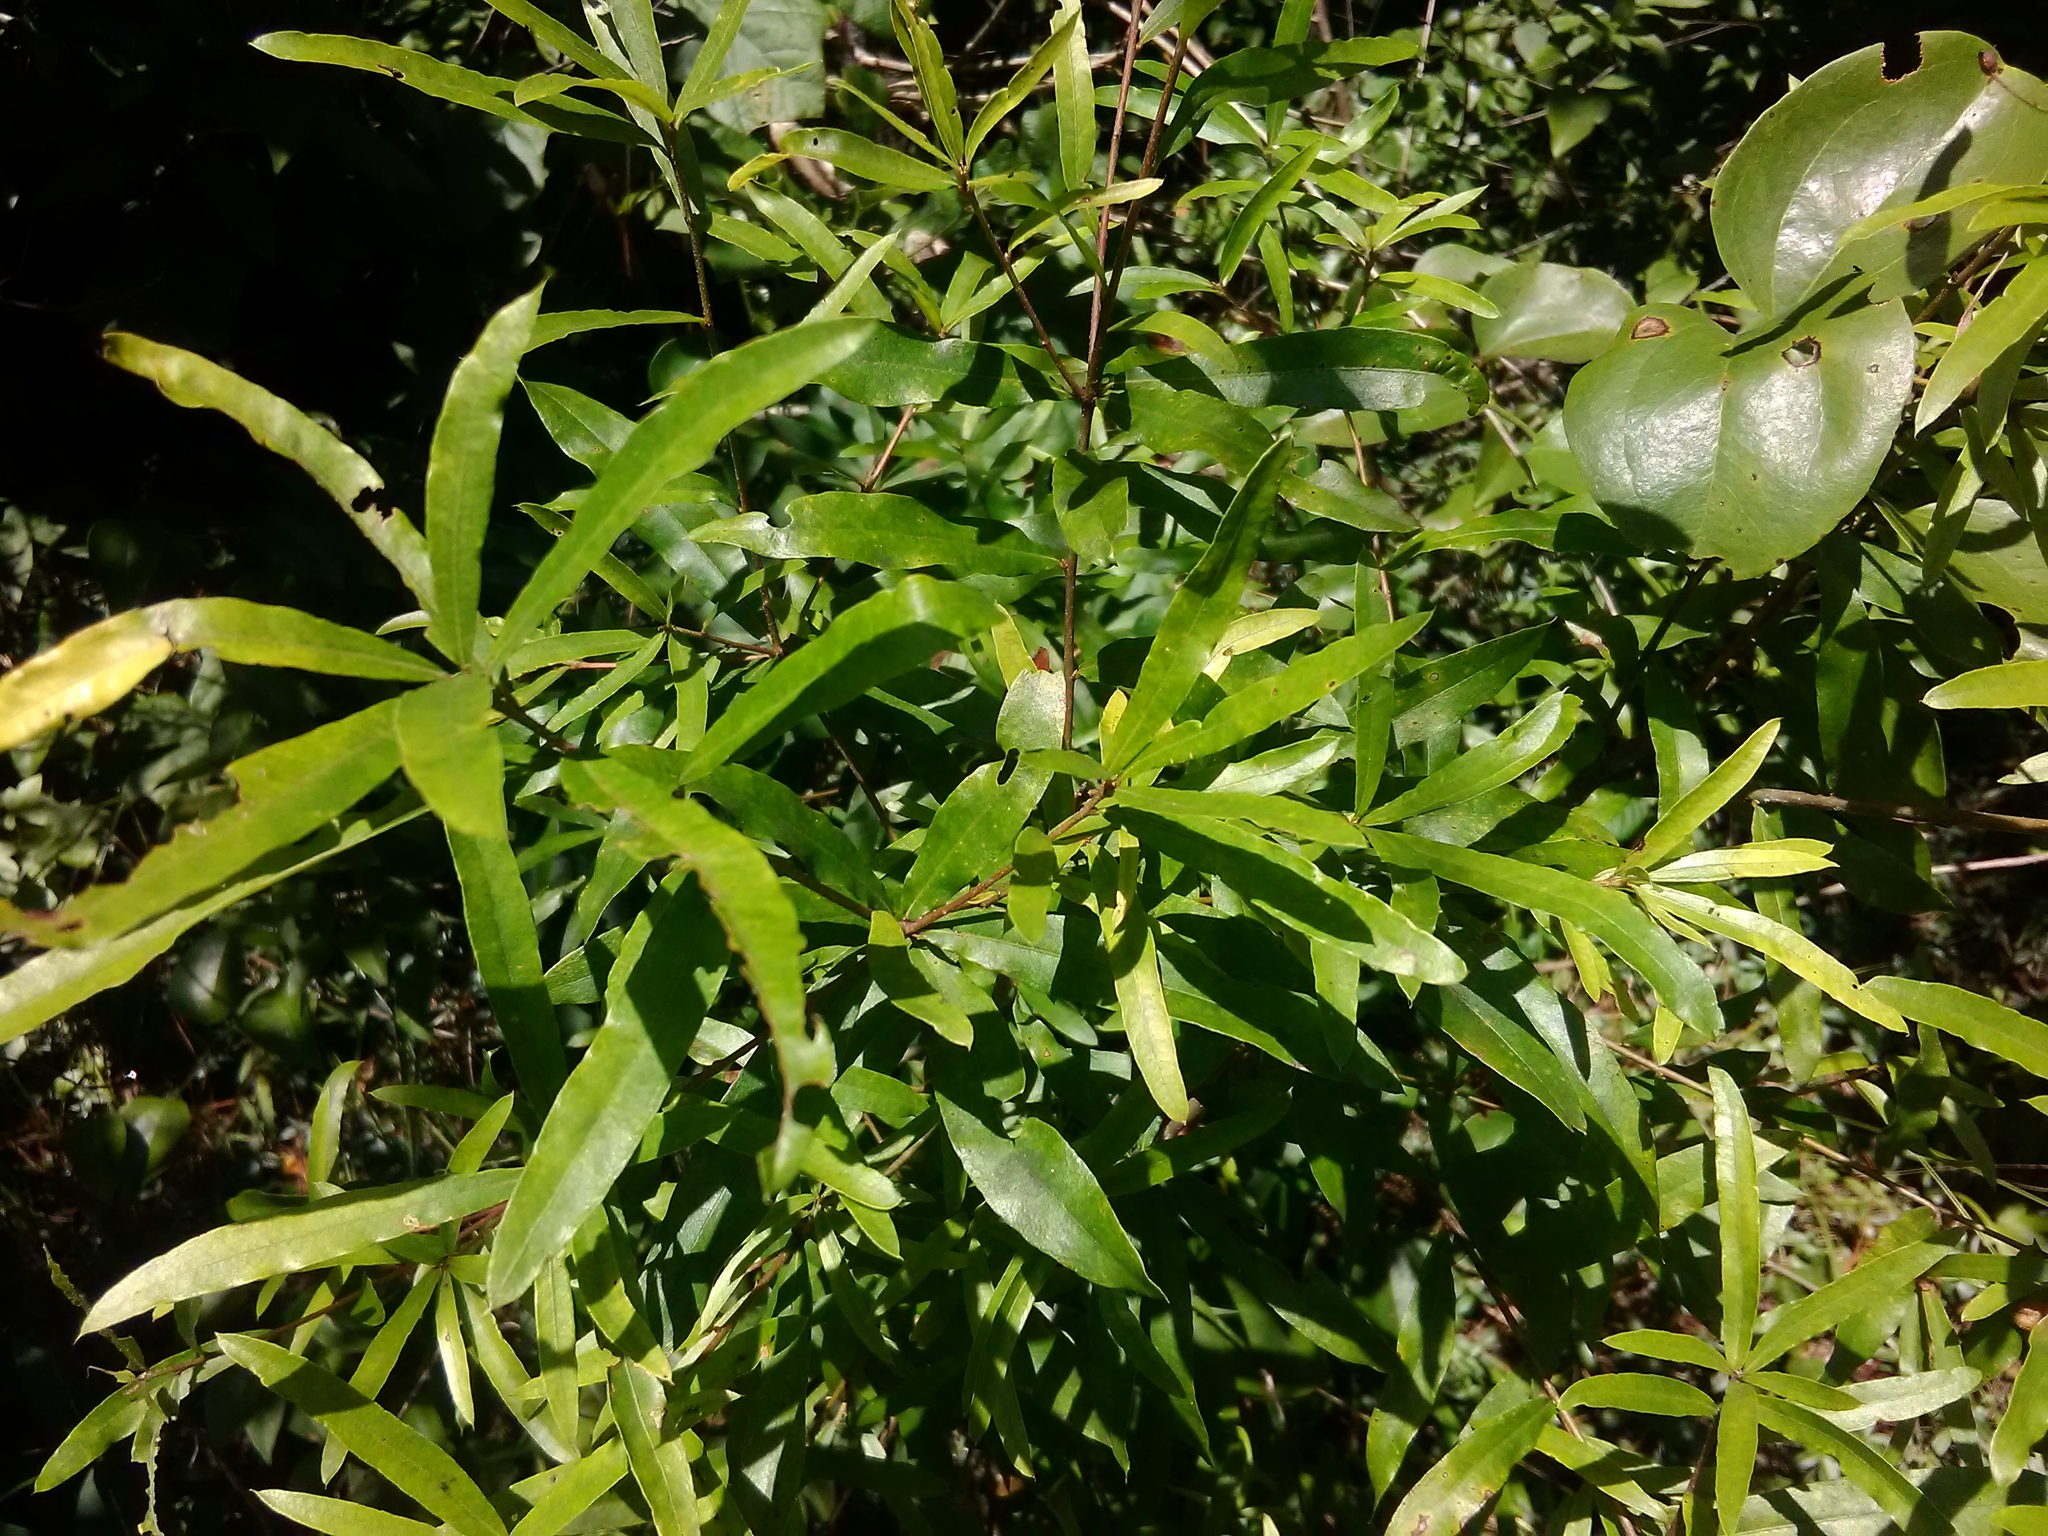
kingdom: Plantae
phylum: Tracheophyta
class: Magnoliopsida
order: Fagales
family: Fagaceae
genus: Quercus
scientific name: Quercus phellos
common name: Willow oak
